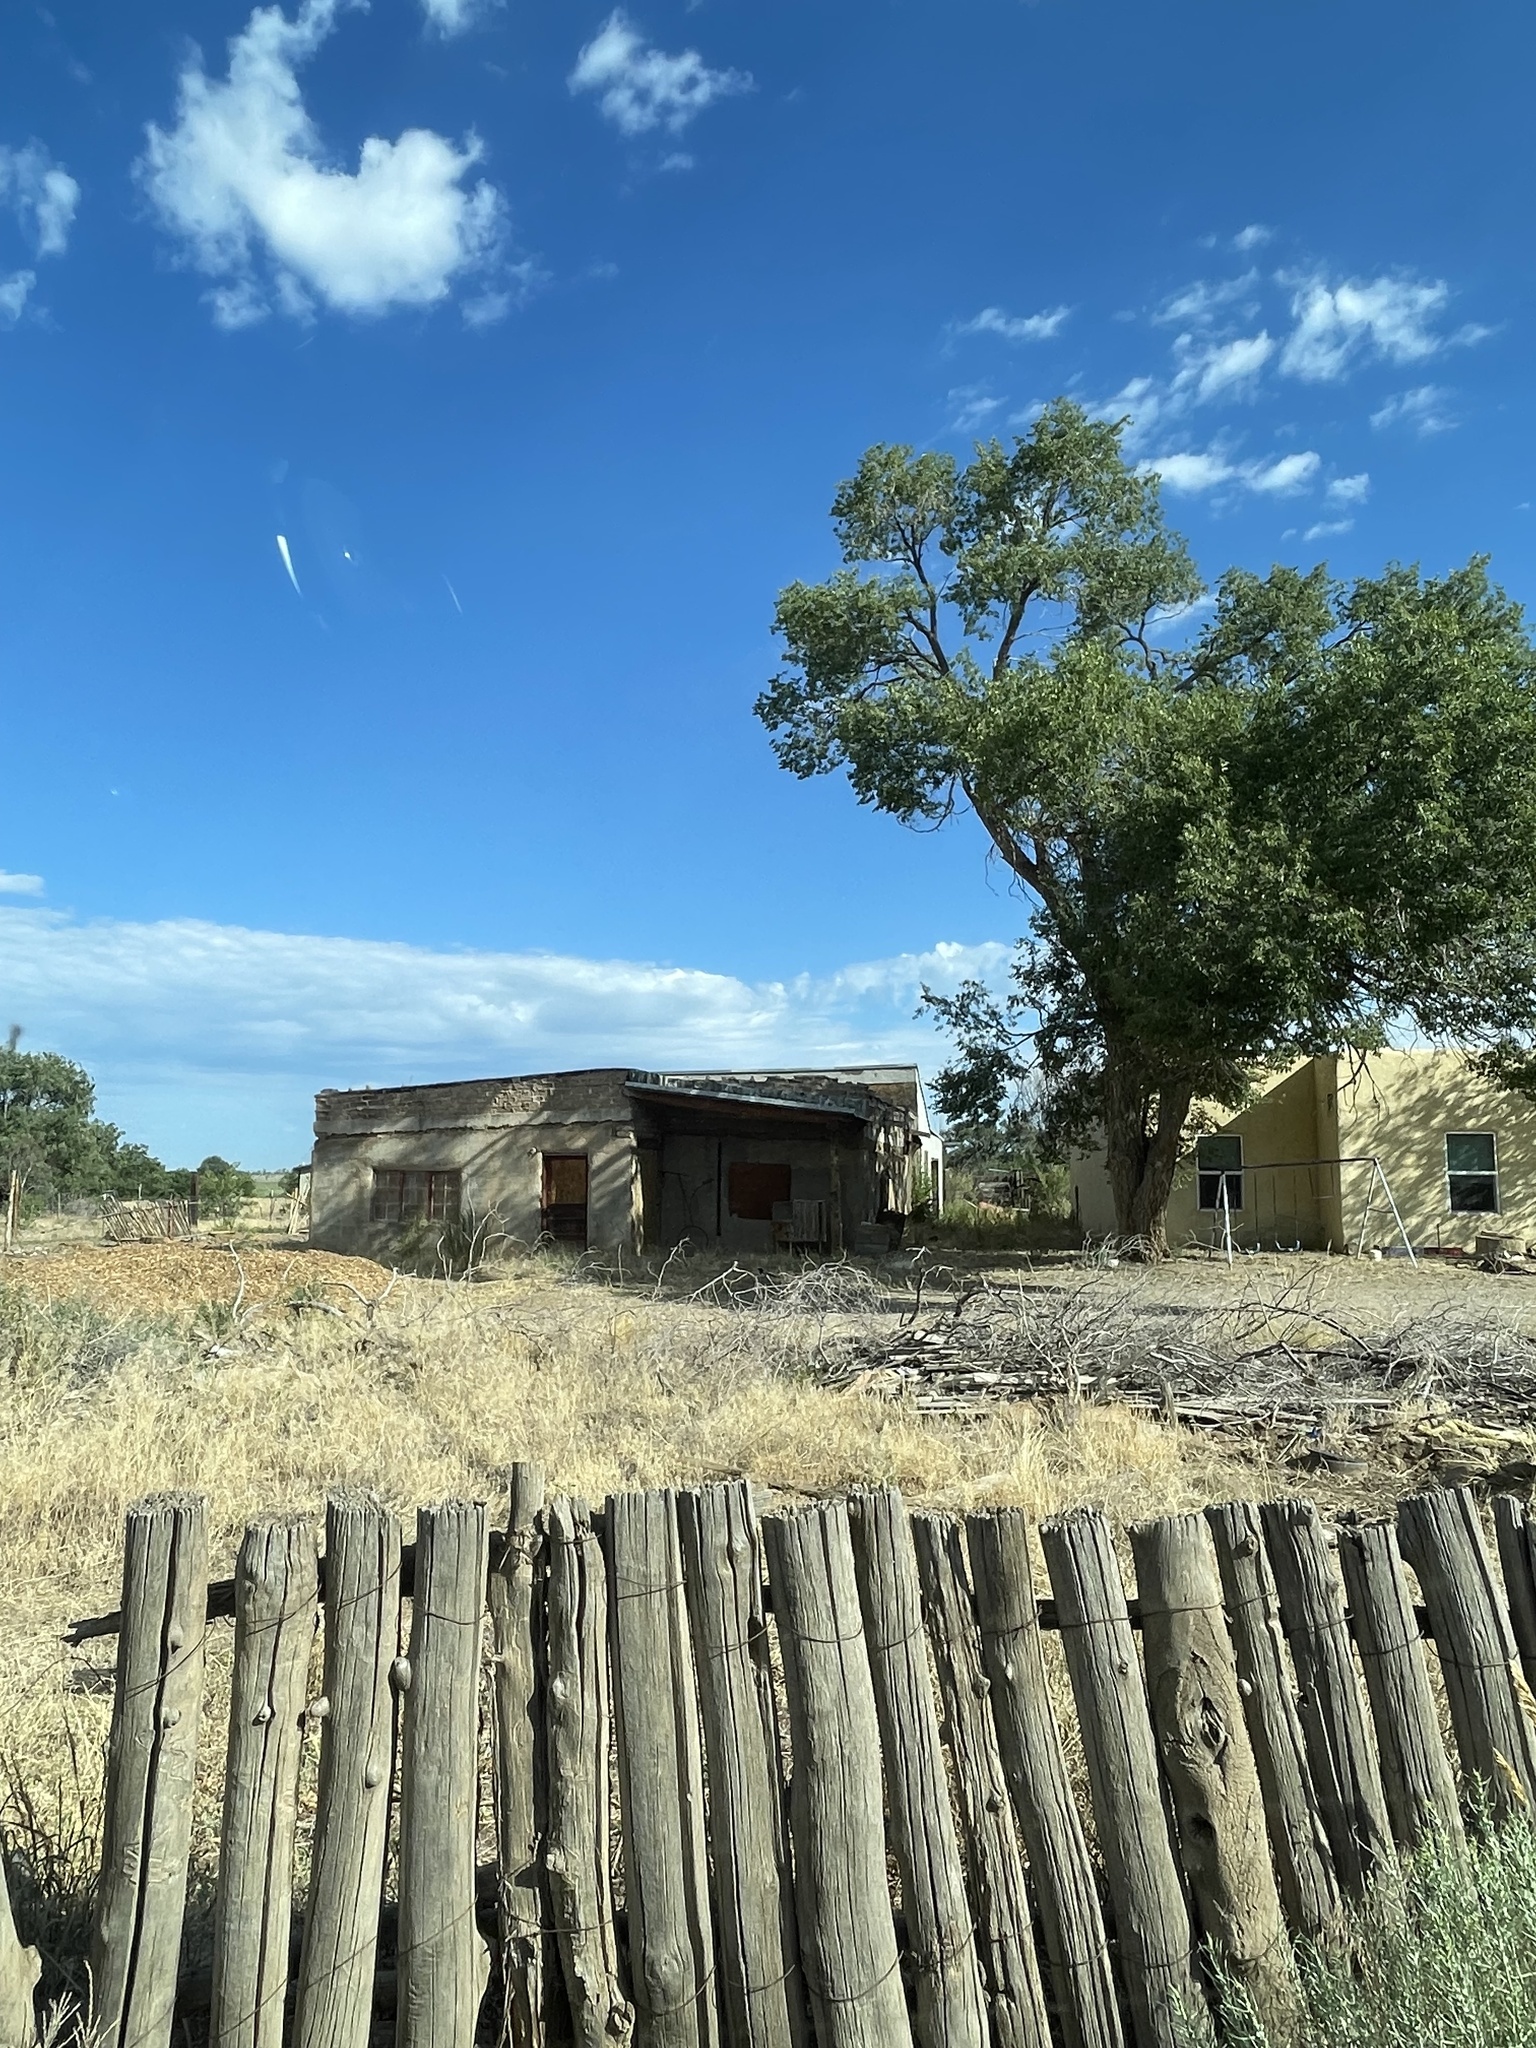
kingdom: Animalia
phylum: Chordata
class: Aves
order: Passeriformes
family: Corvidae
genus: Pica
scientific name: Pica hudsonia
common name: Black-billed magpie
